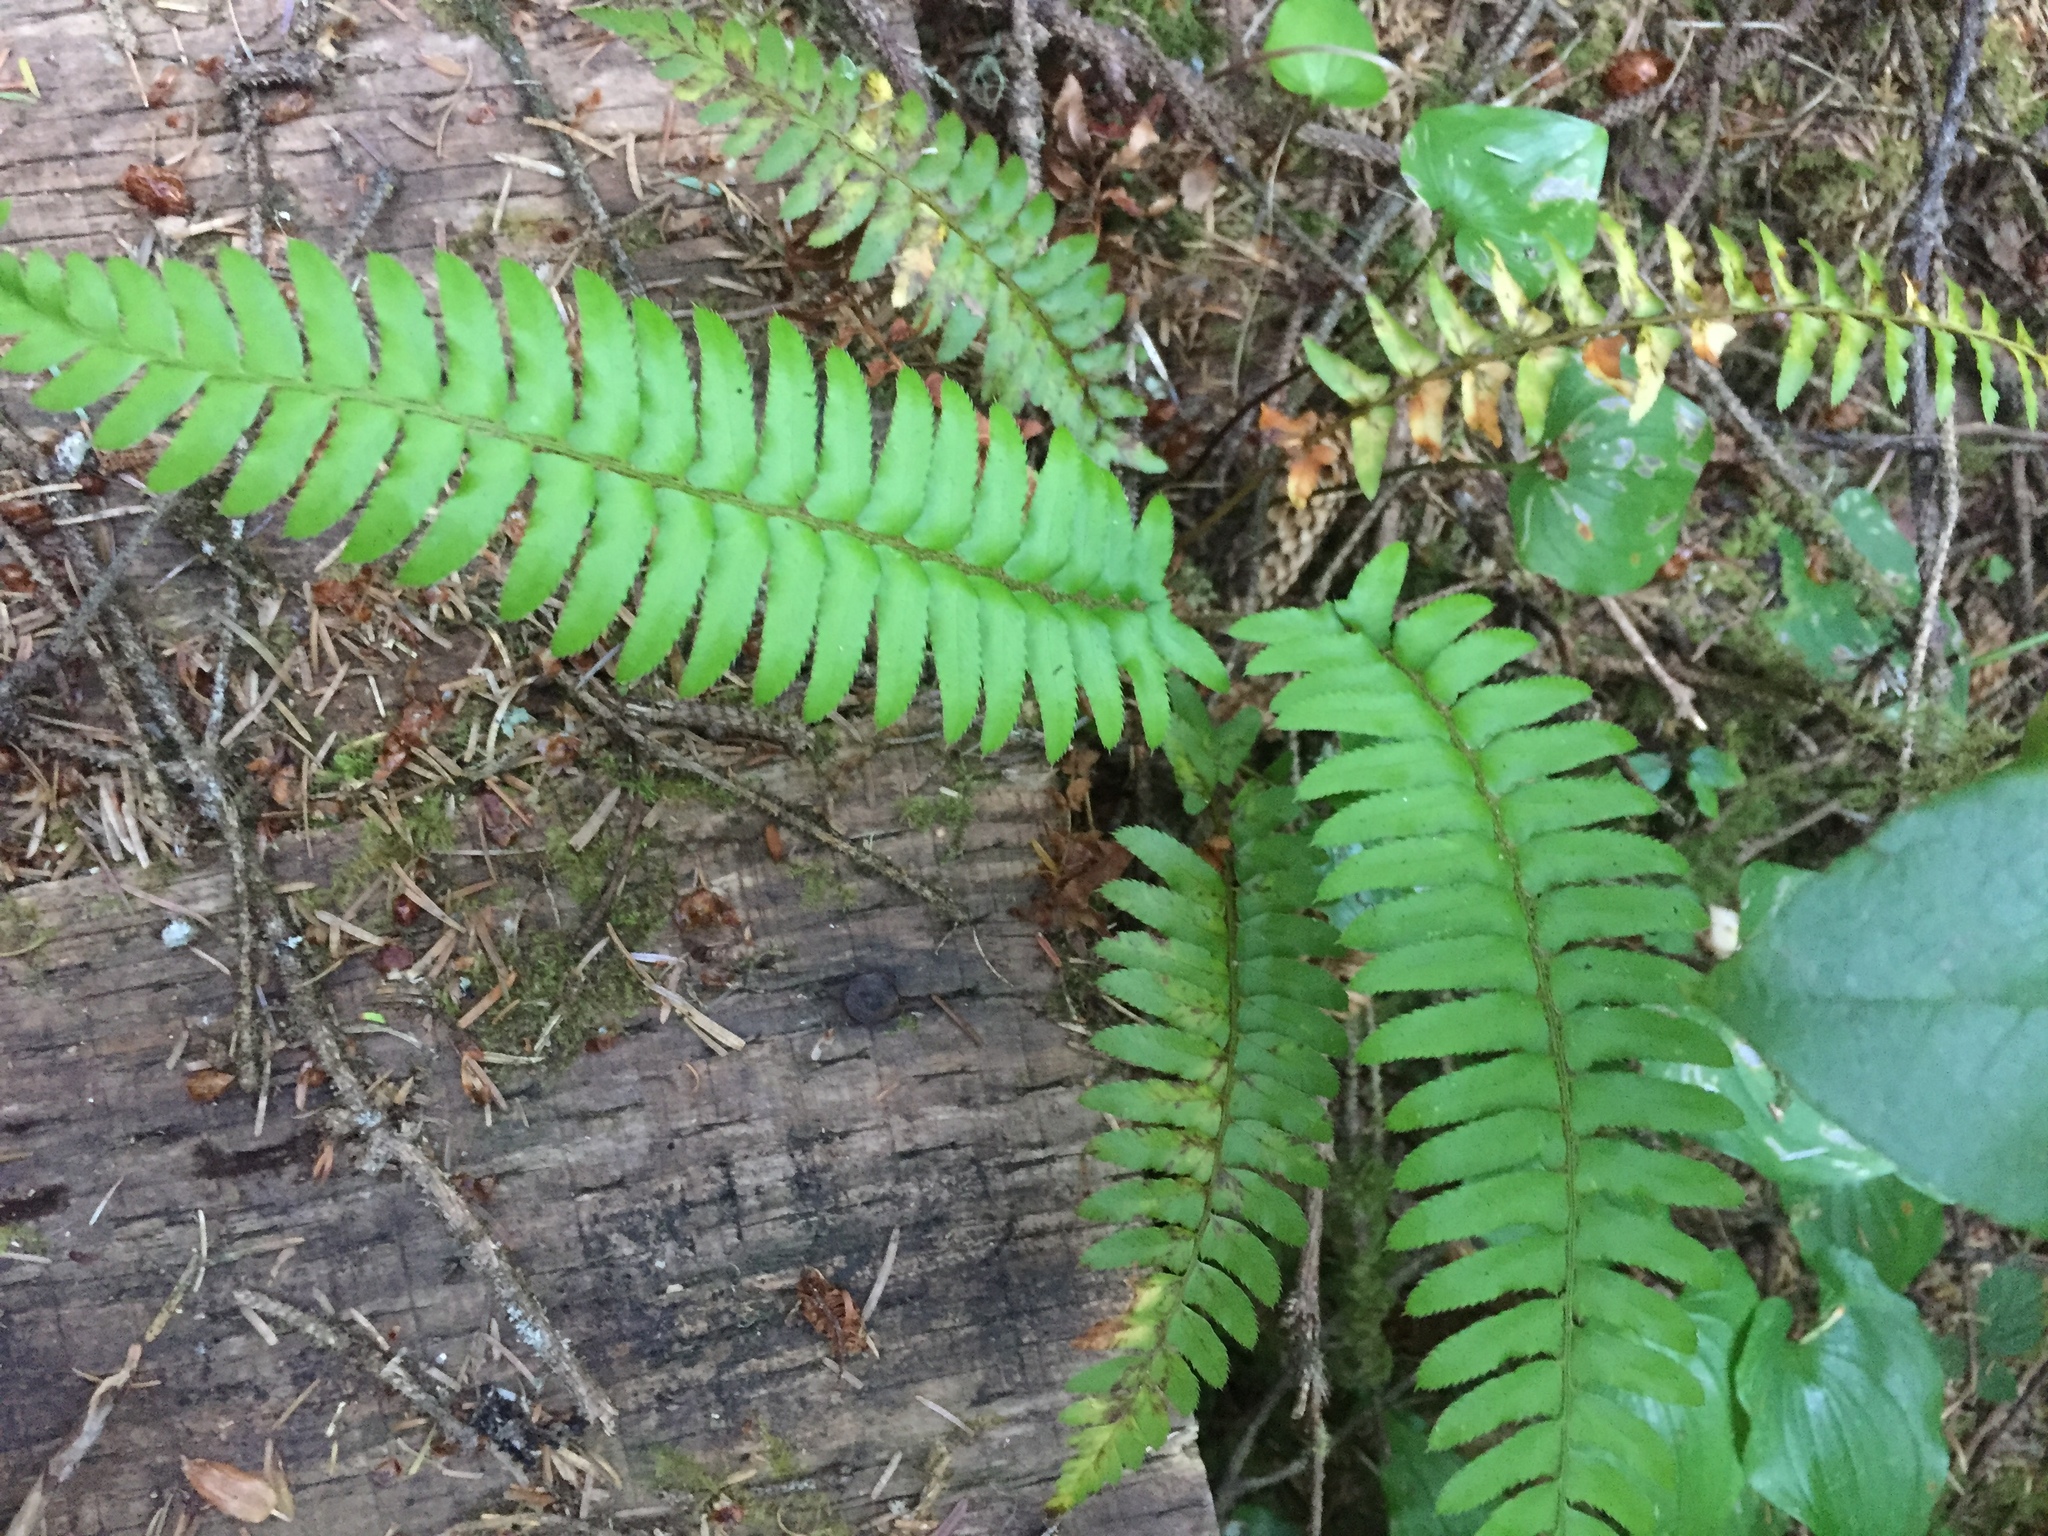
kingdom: Plantae
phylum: Tracheophyta
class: Polypodiopsida
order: Polypodiales
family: Dryopteridaceae
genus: Polystichum
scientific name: Polystichum munitum
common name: Western sword-fern
